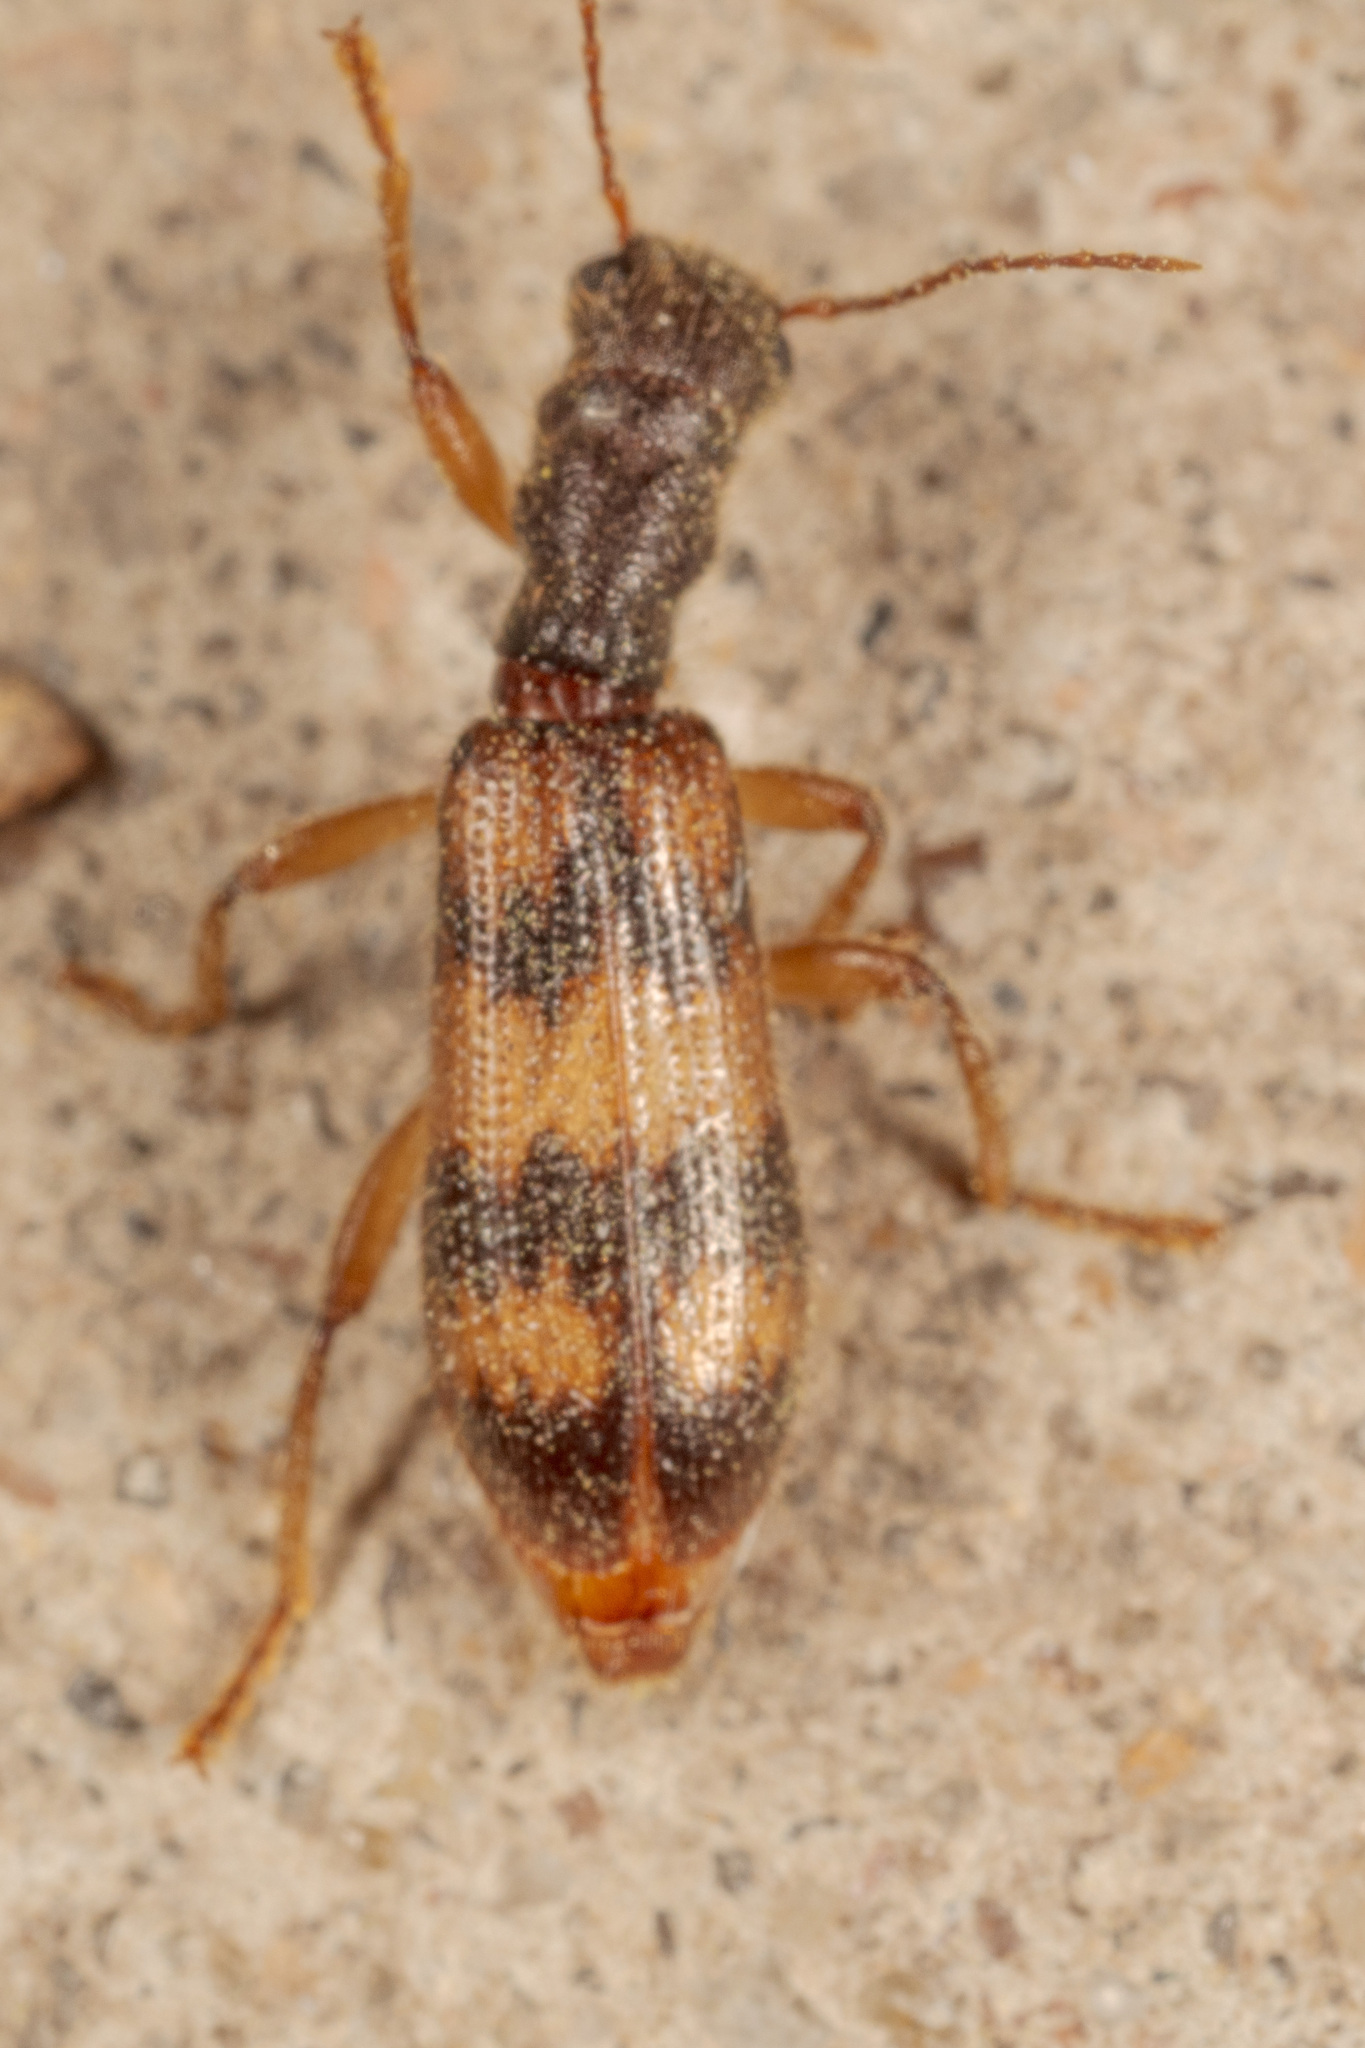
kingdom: Animalia
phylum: Arthropoda
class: Insecta
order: Coleoptera
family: Cleridae
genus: Cymatodera
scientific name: Cymatodera undulata
